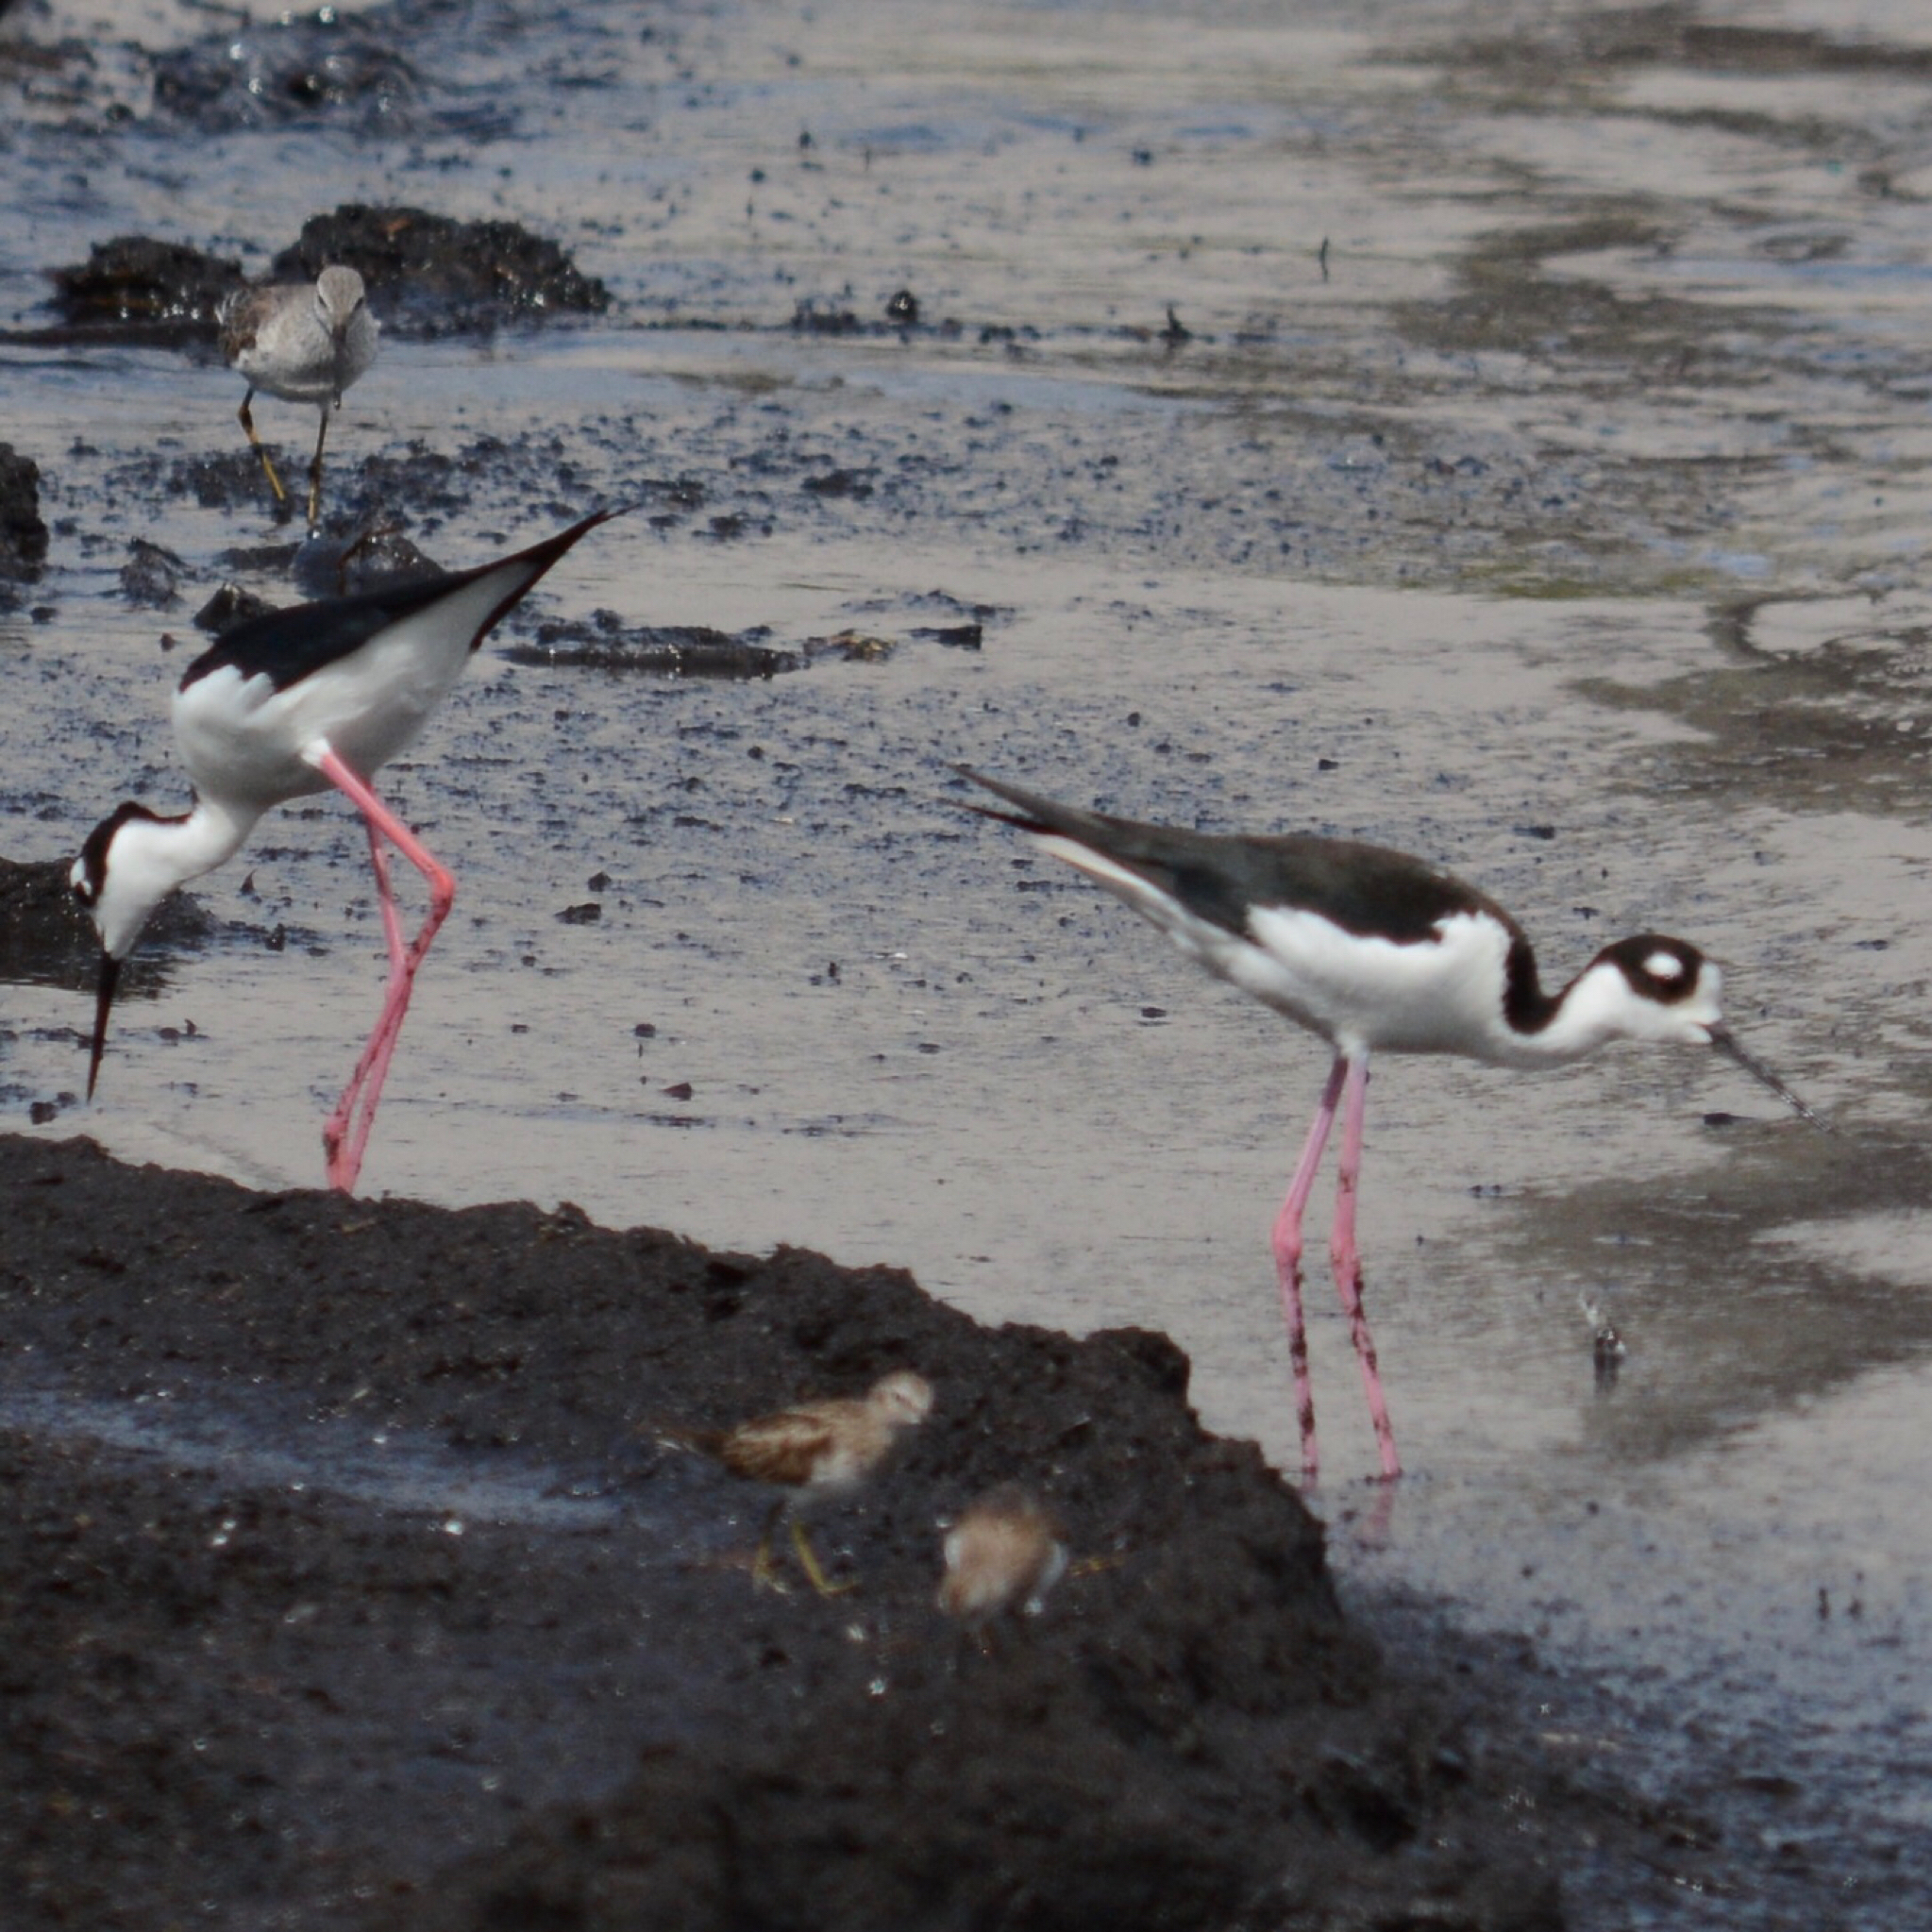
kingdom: Animalia
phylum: Chordata
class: Aves
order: Charadriiformes
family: Recurvirostridae
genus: Himantopus
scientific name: Himantopus mexicanus
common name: Black-necked stilt
